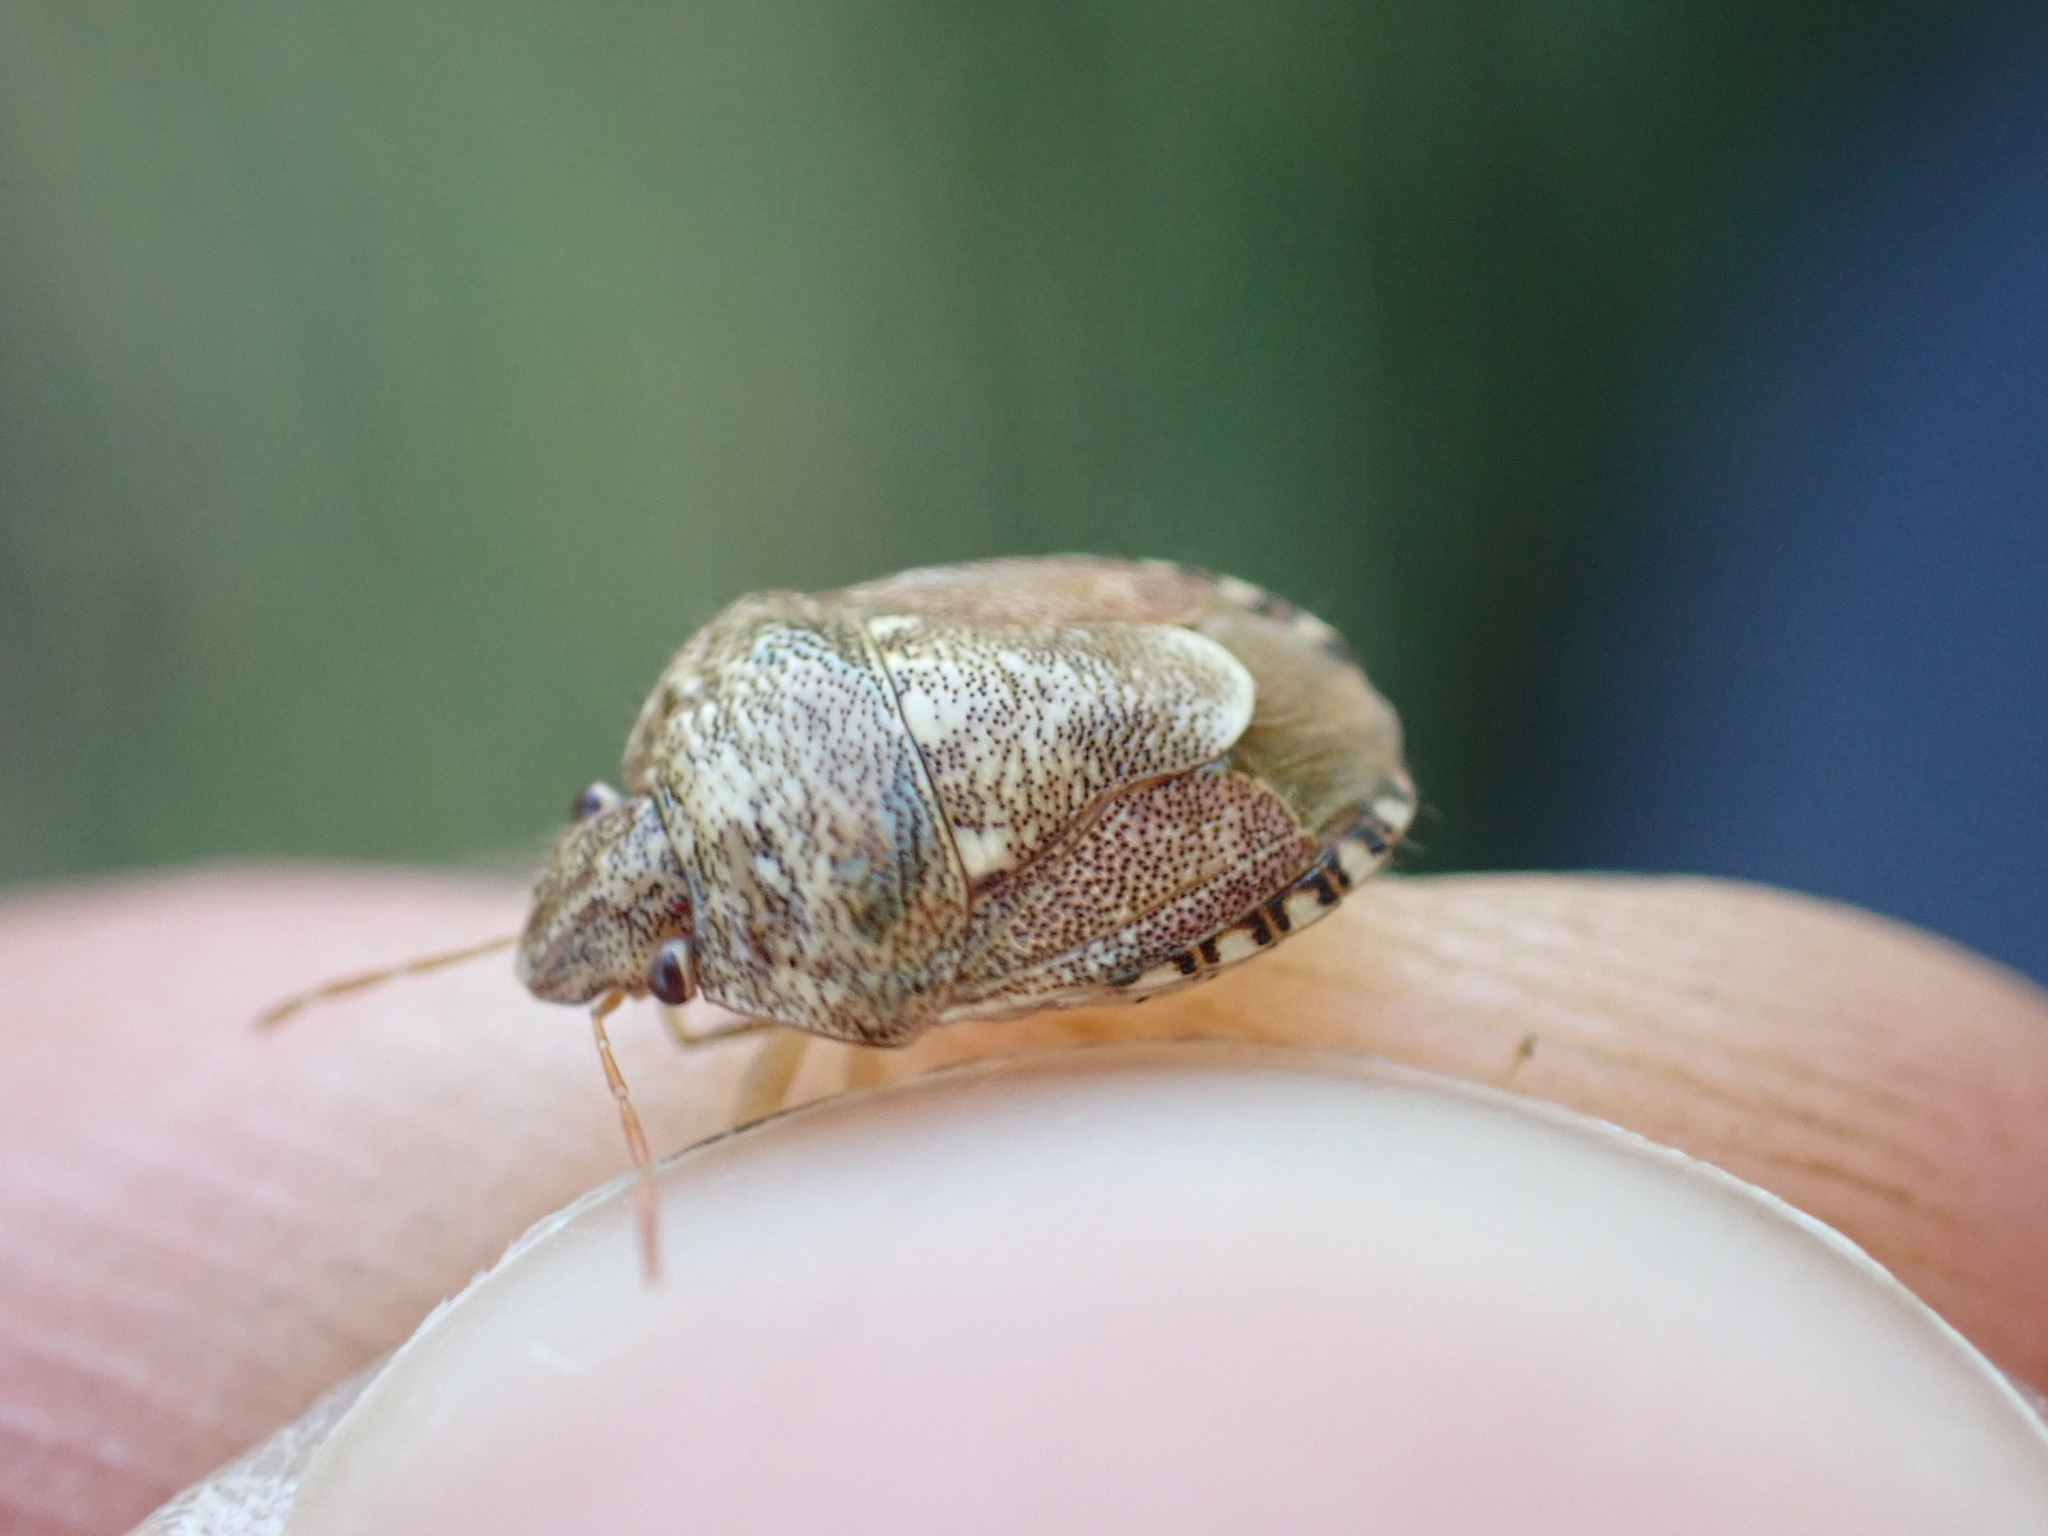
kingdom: Animalia
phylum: Arthropoda
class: Insecta
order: Hemiptera
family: Pentatomidae
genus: Staria
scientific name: Staria lunata
